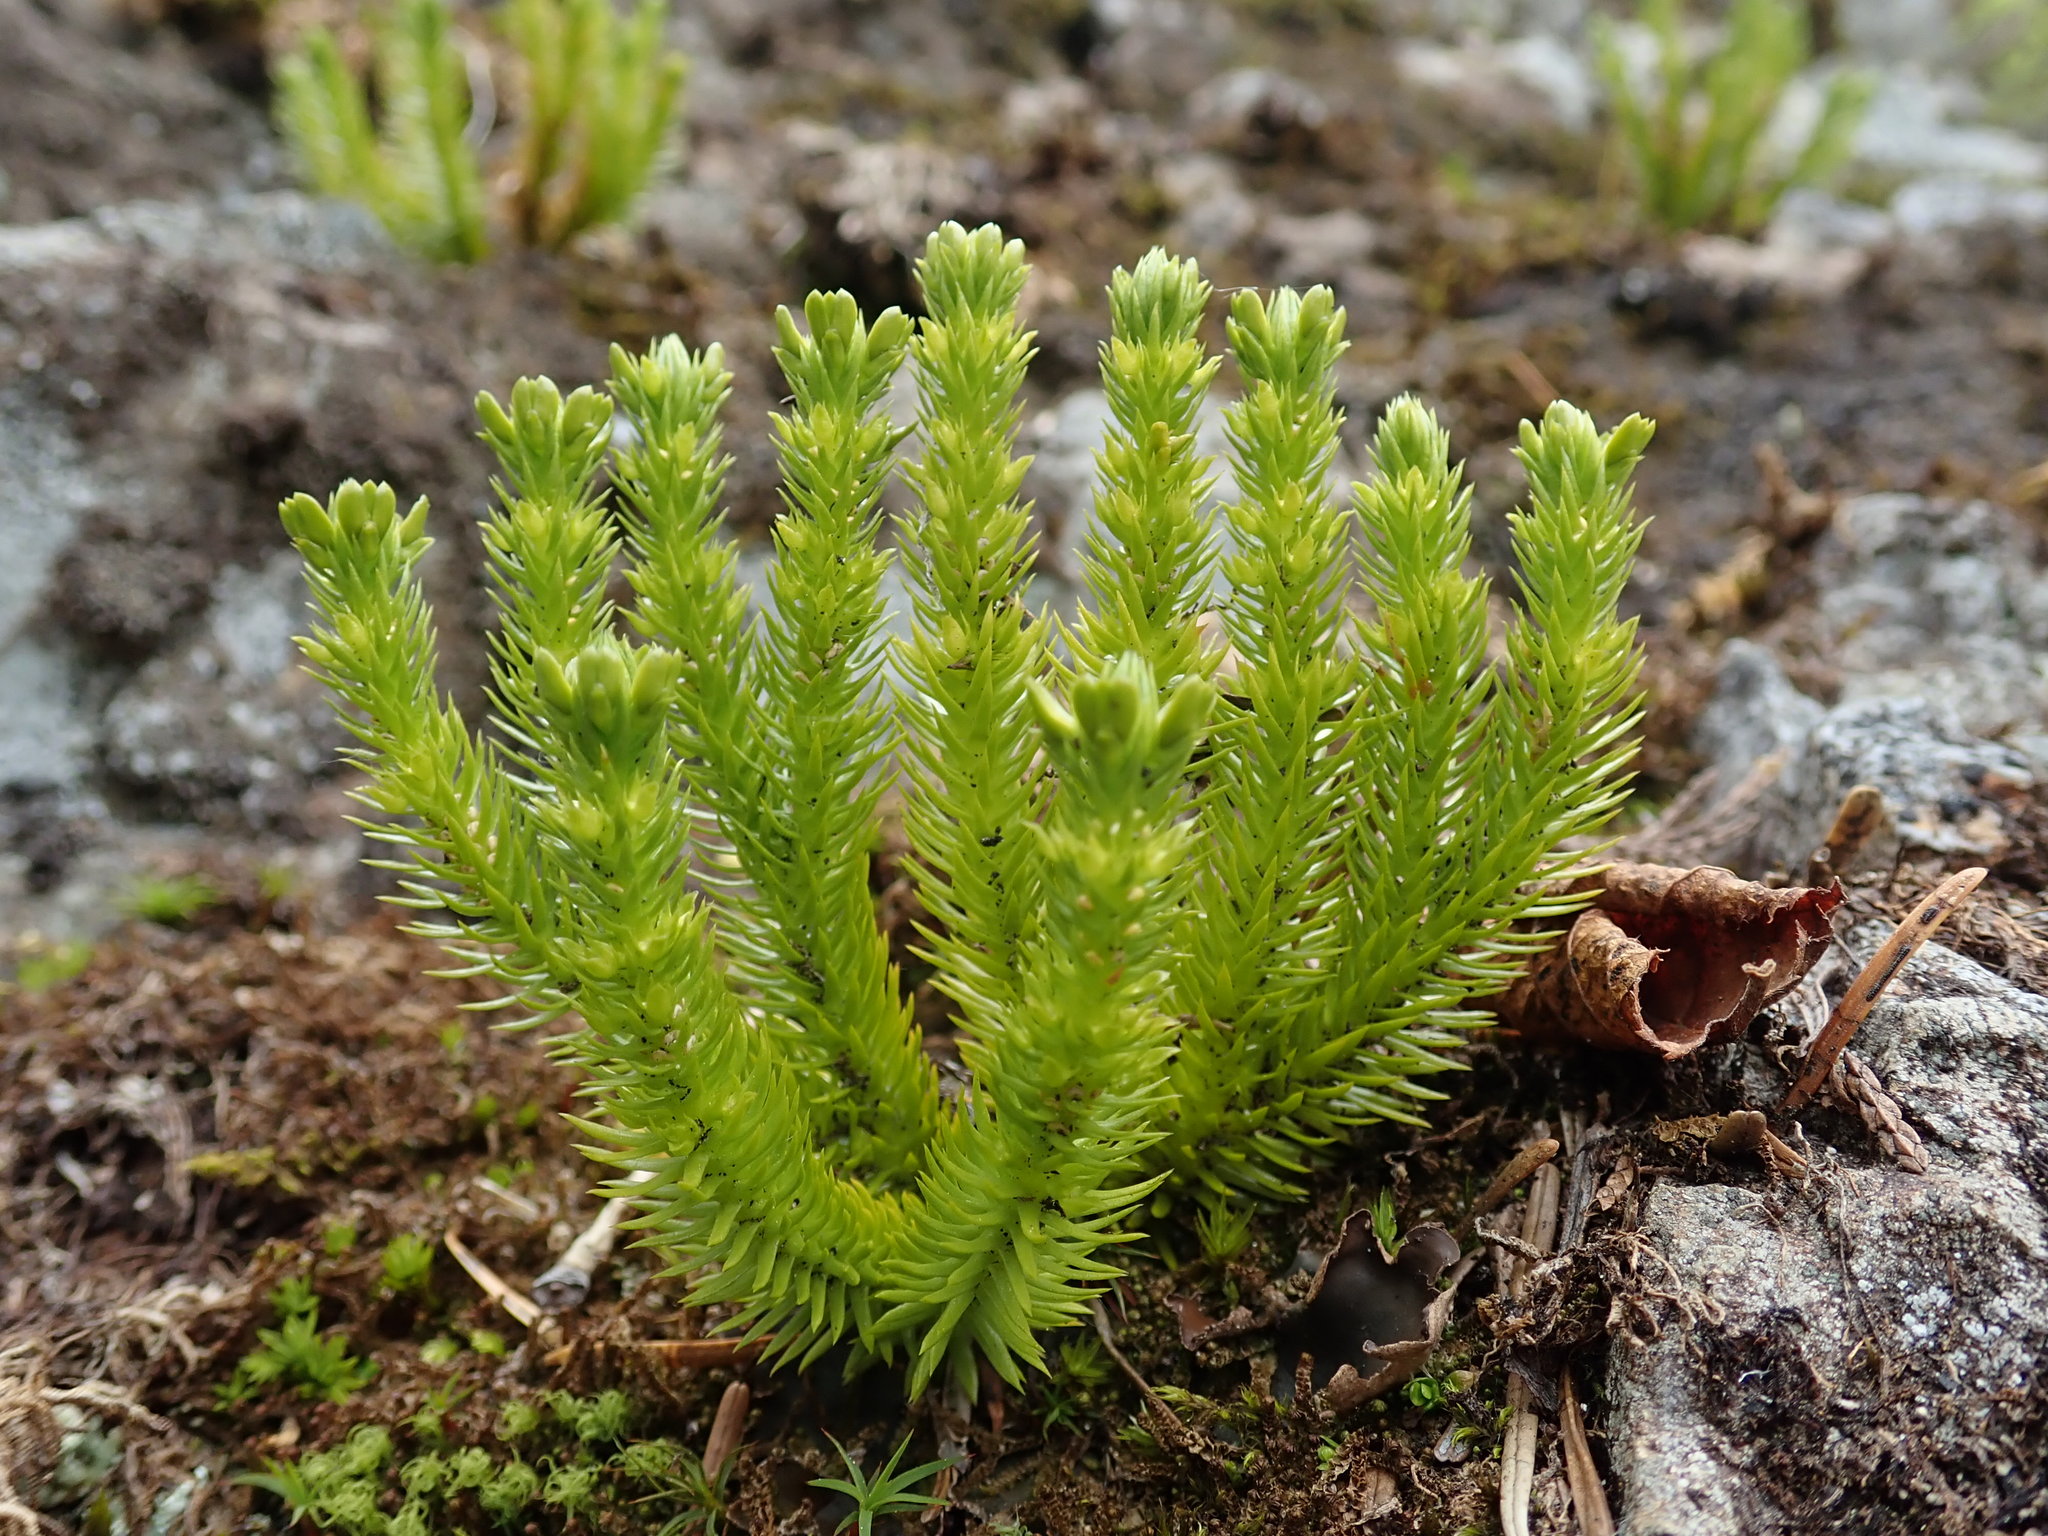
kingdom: Plantae
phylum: Tracheophyta
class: Lycopodiopsida
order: Lycopodiales
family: Lycopodiaceae
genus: Huperzia
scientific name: Huperzia miyoshiana
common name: Chinese clubmoss
